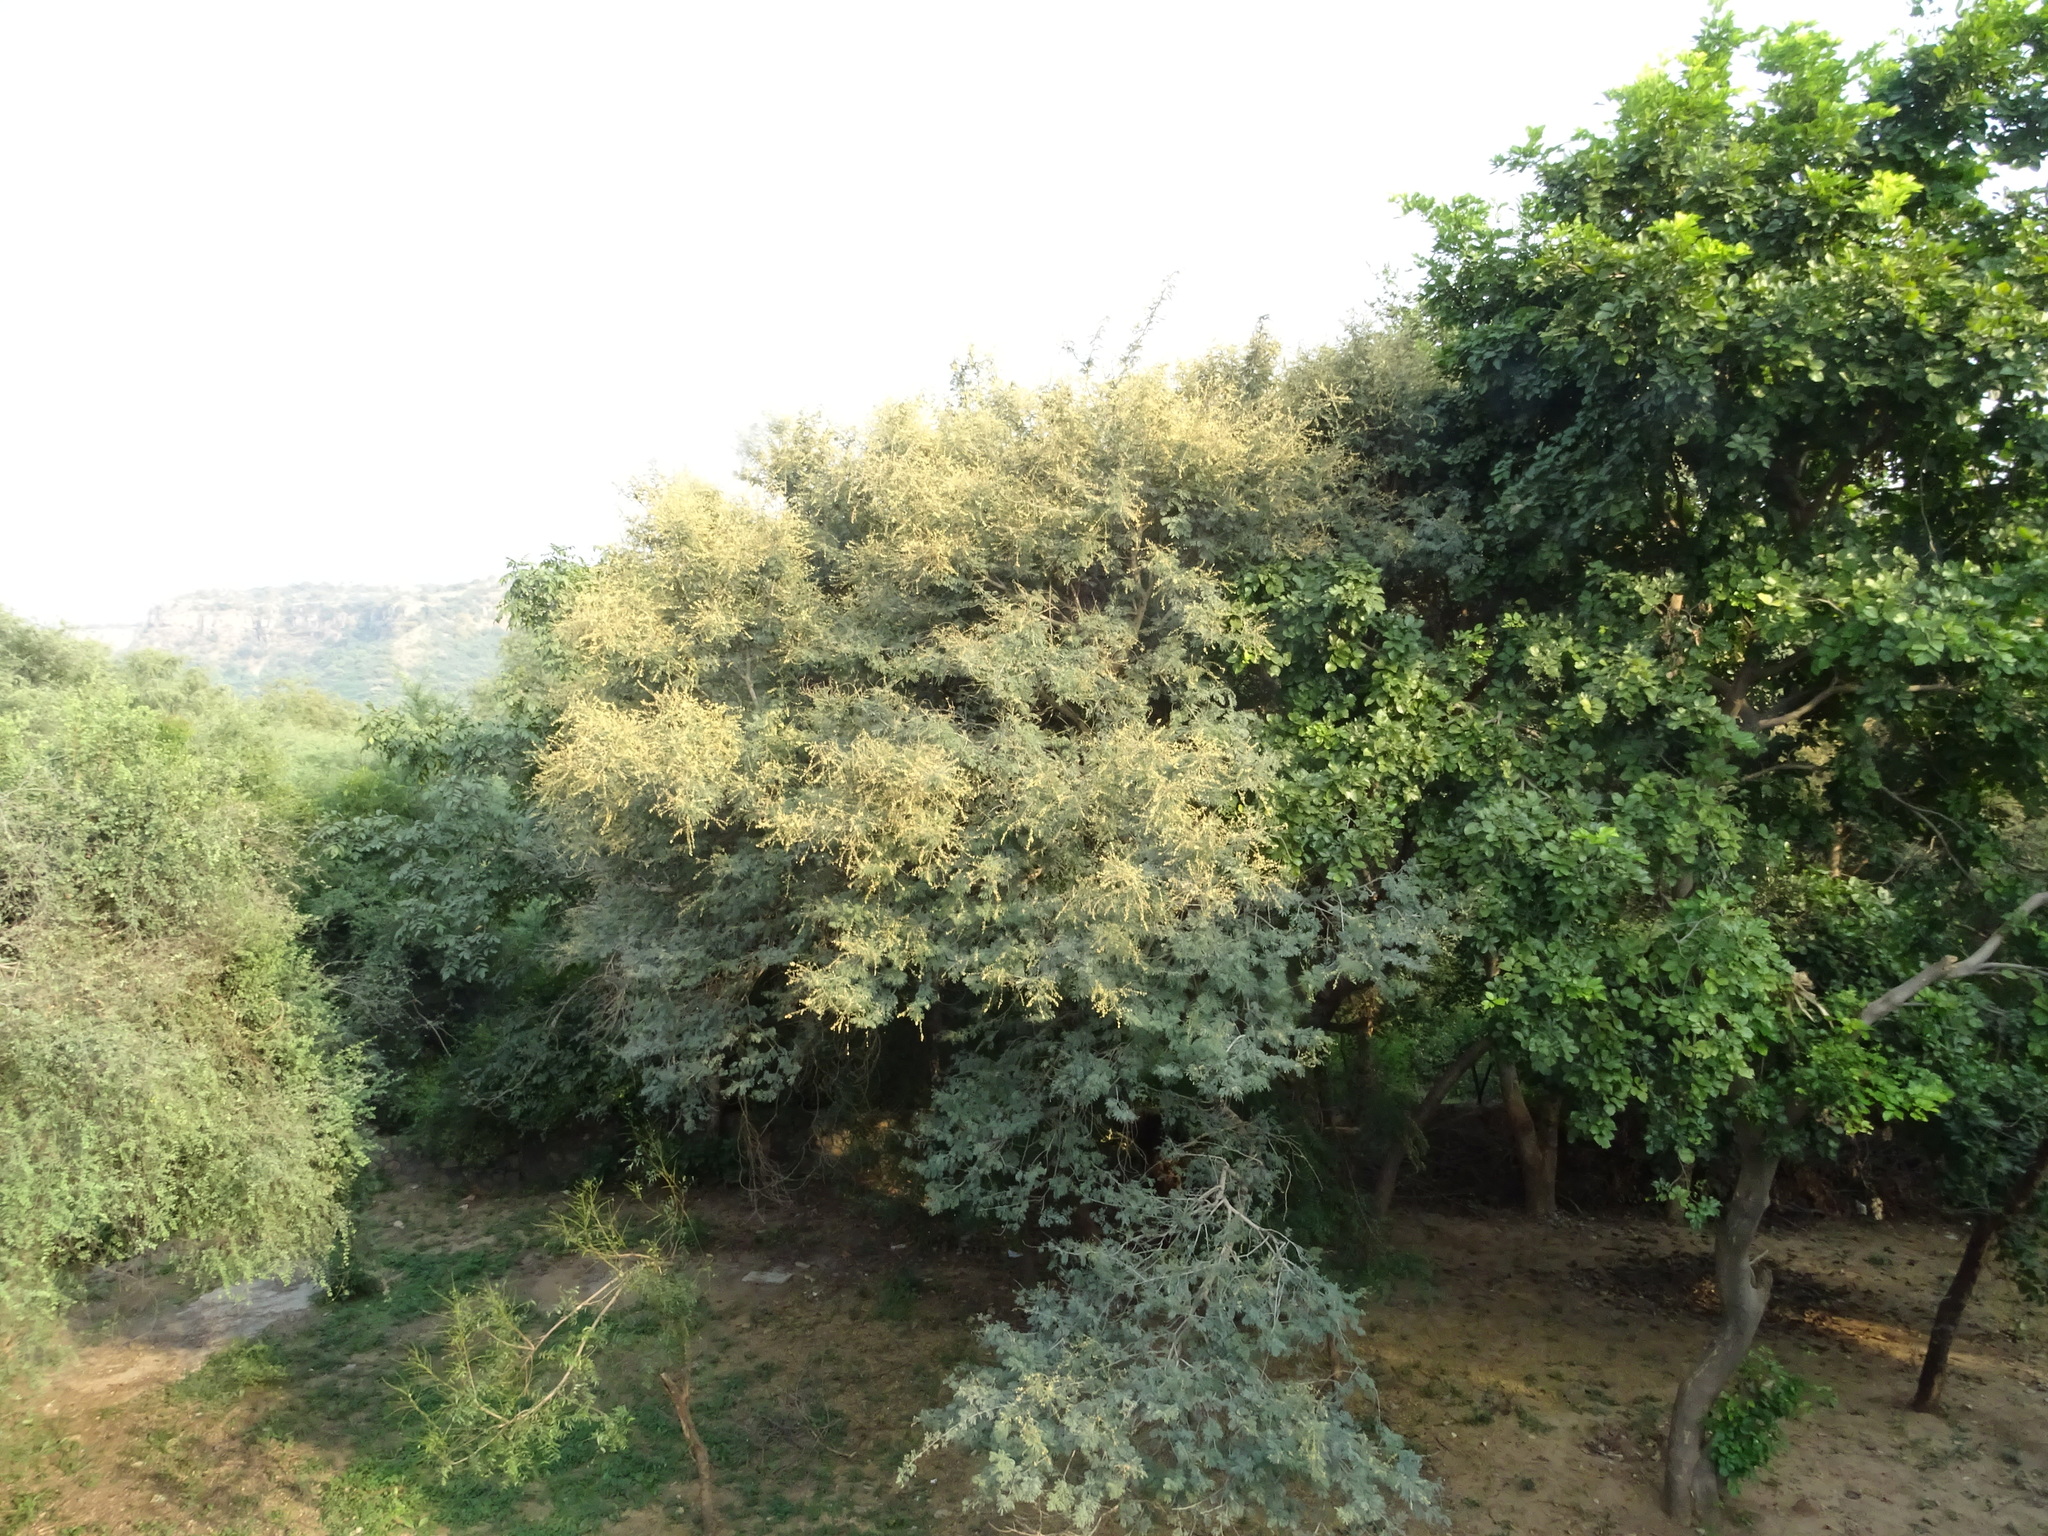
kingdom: Plantae
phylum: Tracheophyta
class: Magnoliopsida
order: Fabales
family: Fabaceae
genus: Vachellia
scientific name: Vachellia leucophloea
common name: Distiller's acacia
